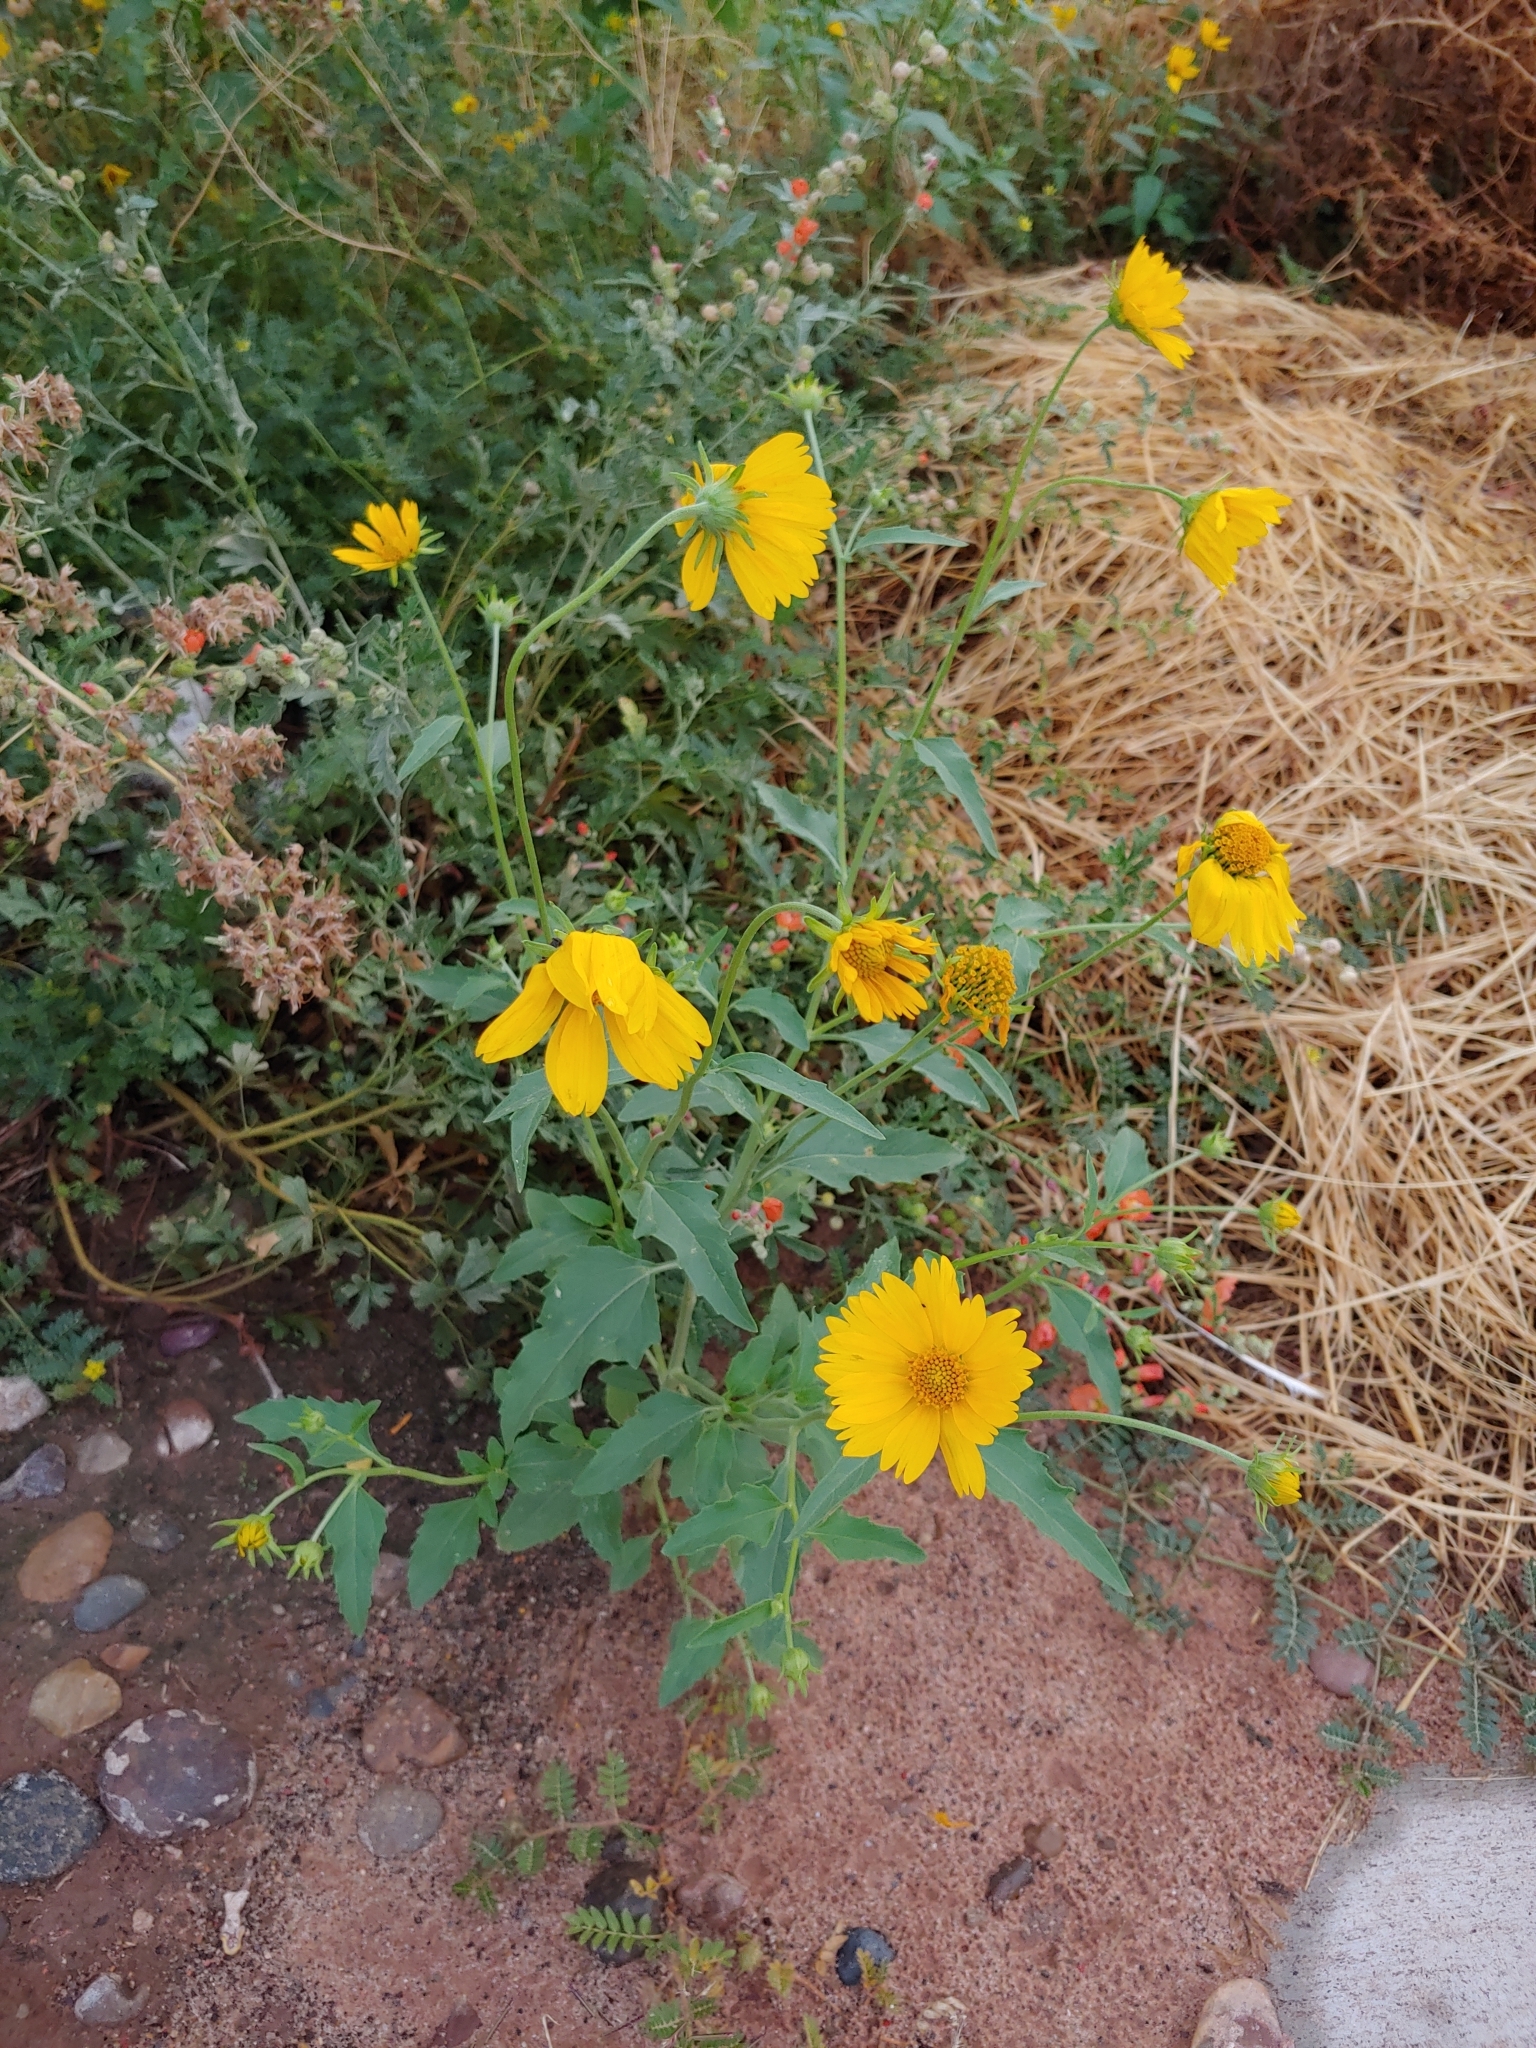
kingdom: Plantae
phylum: Tracheophyta
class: Magnoliopsida
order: Asterales
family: Asteraceae
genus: Verbesina
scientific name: Verbesina encelioides
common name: Golden crownbeard
